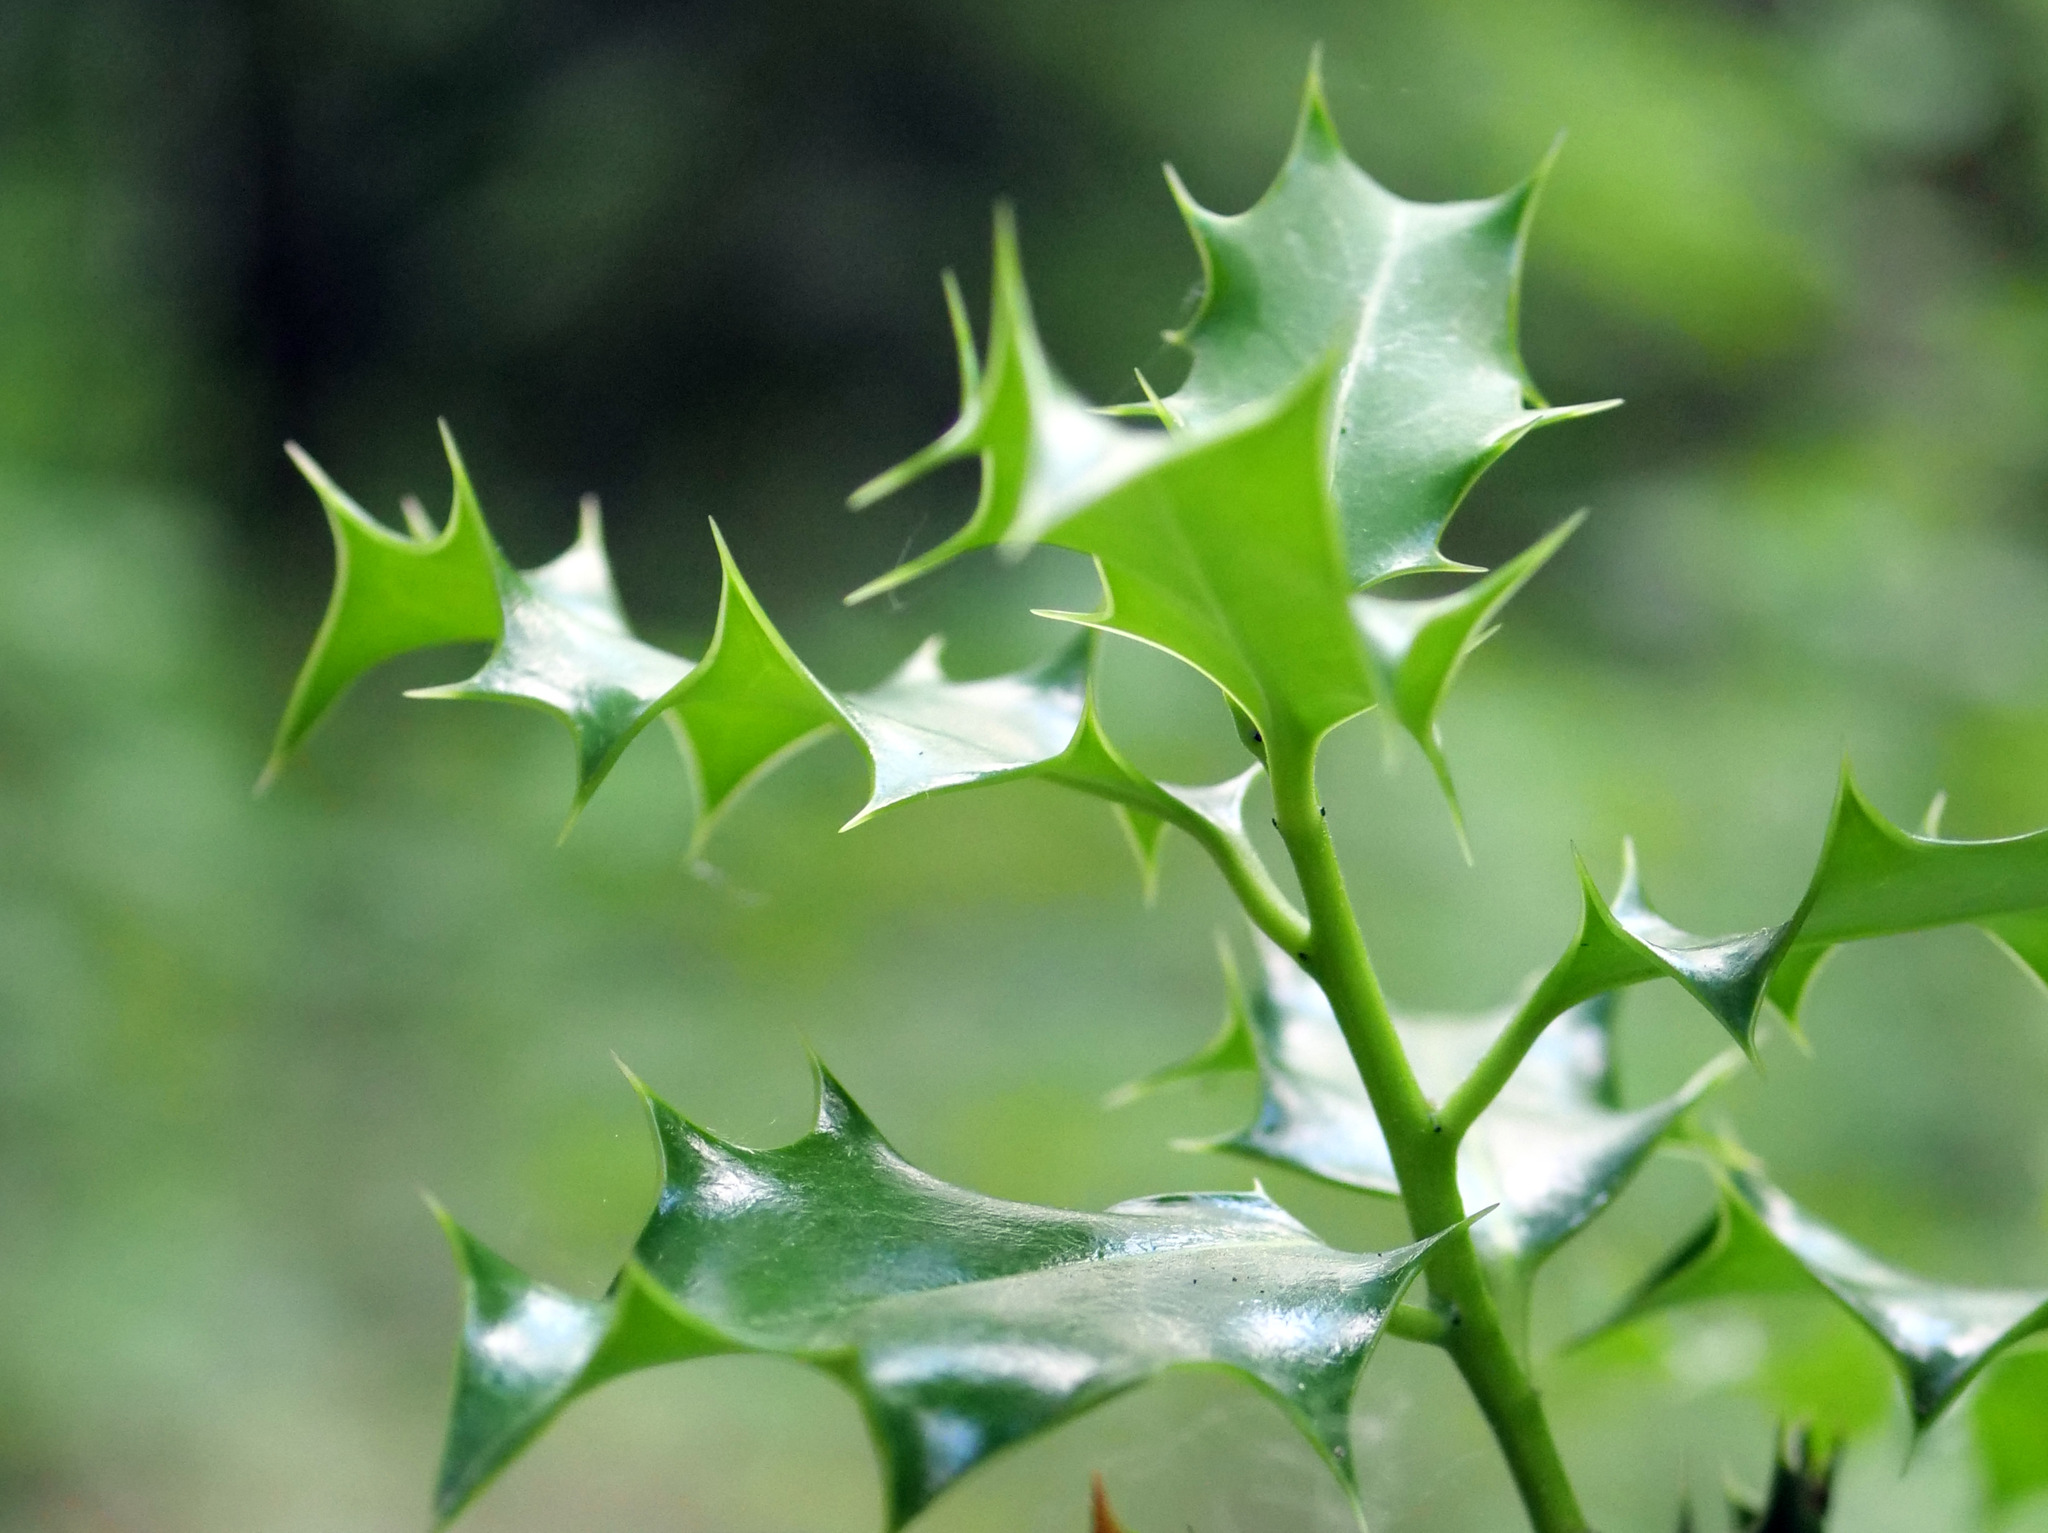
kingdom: Plantae
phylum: Tracheophyta
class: Magnoliopsida
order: Aquifoliales
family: Aquifoliaceae
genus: Ilex
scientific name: Ilex aquifolium
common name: English holly
